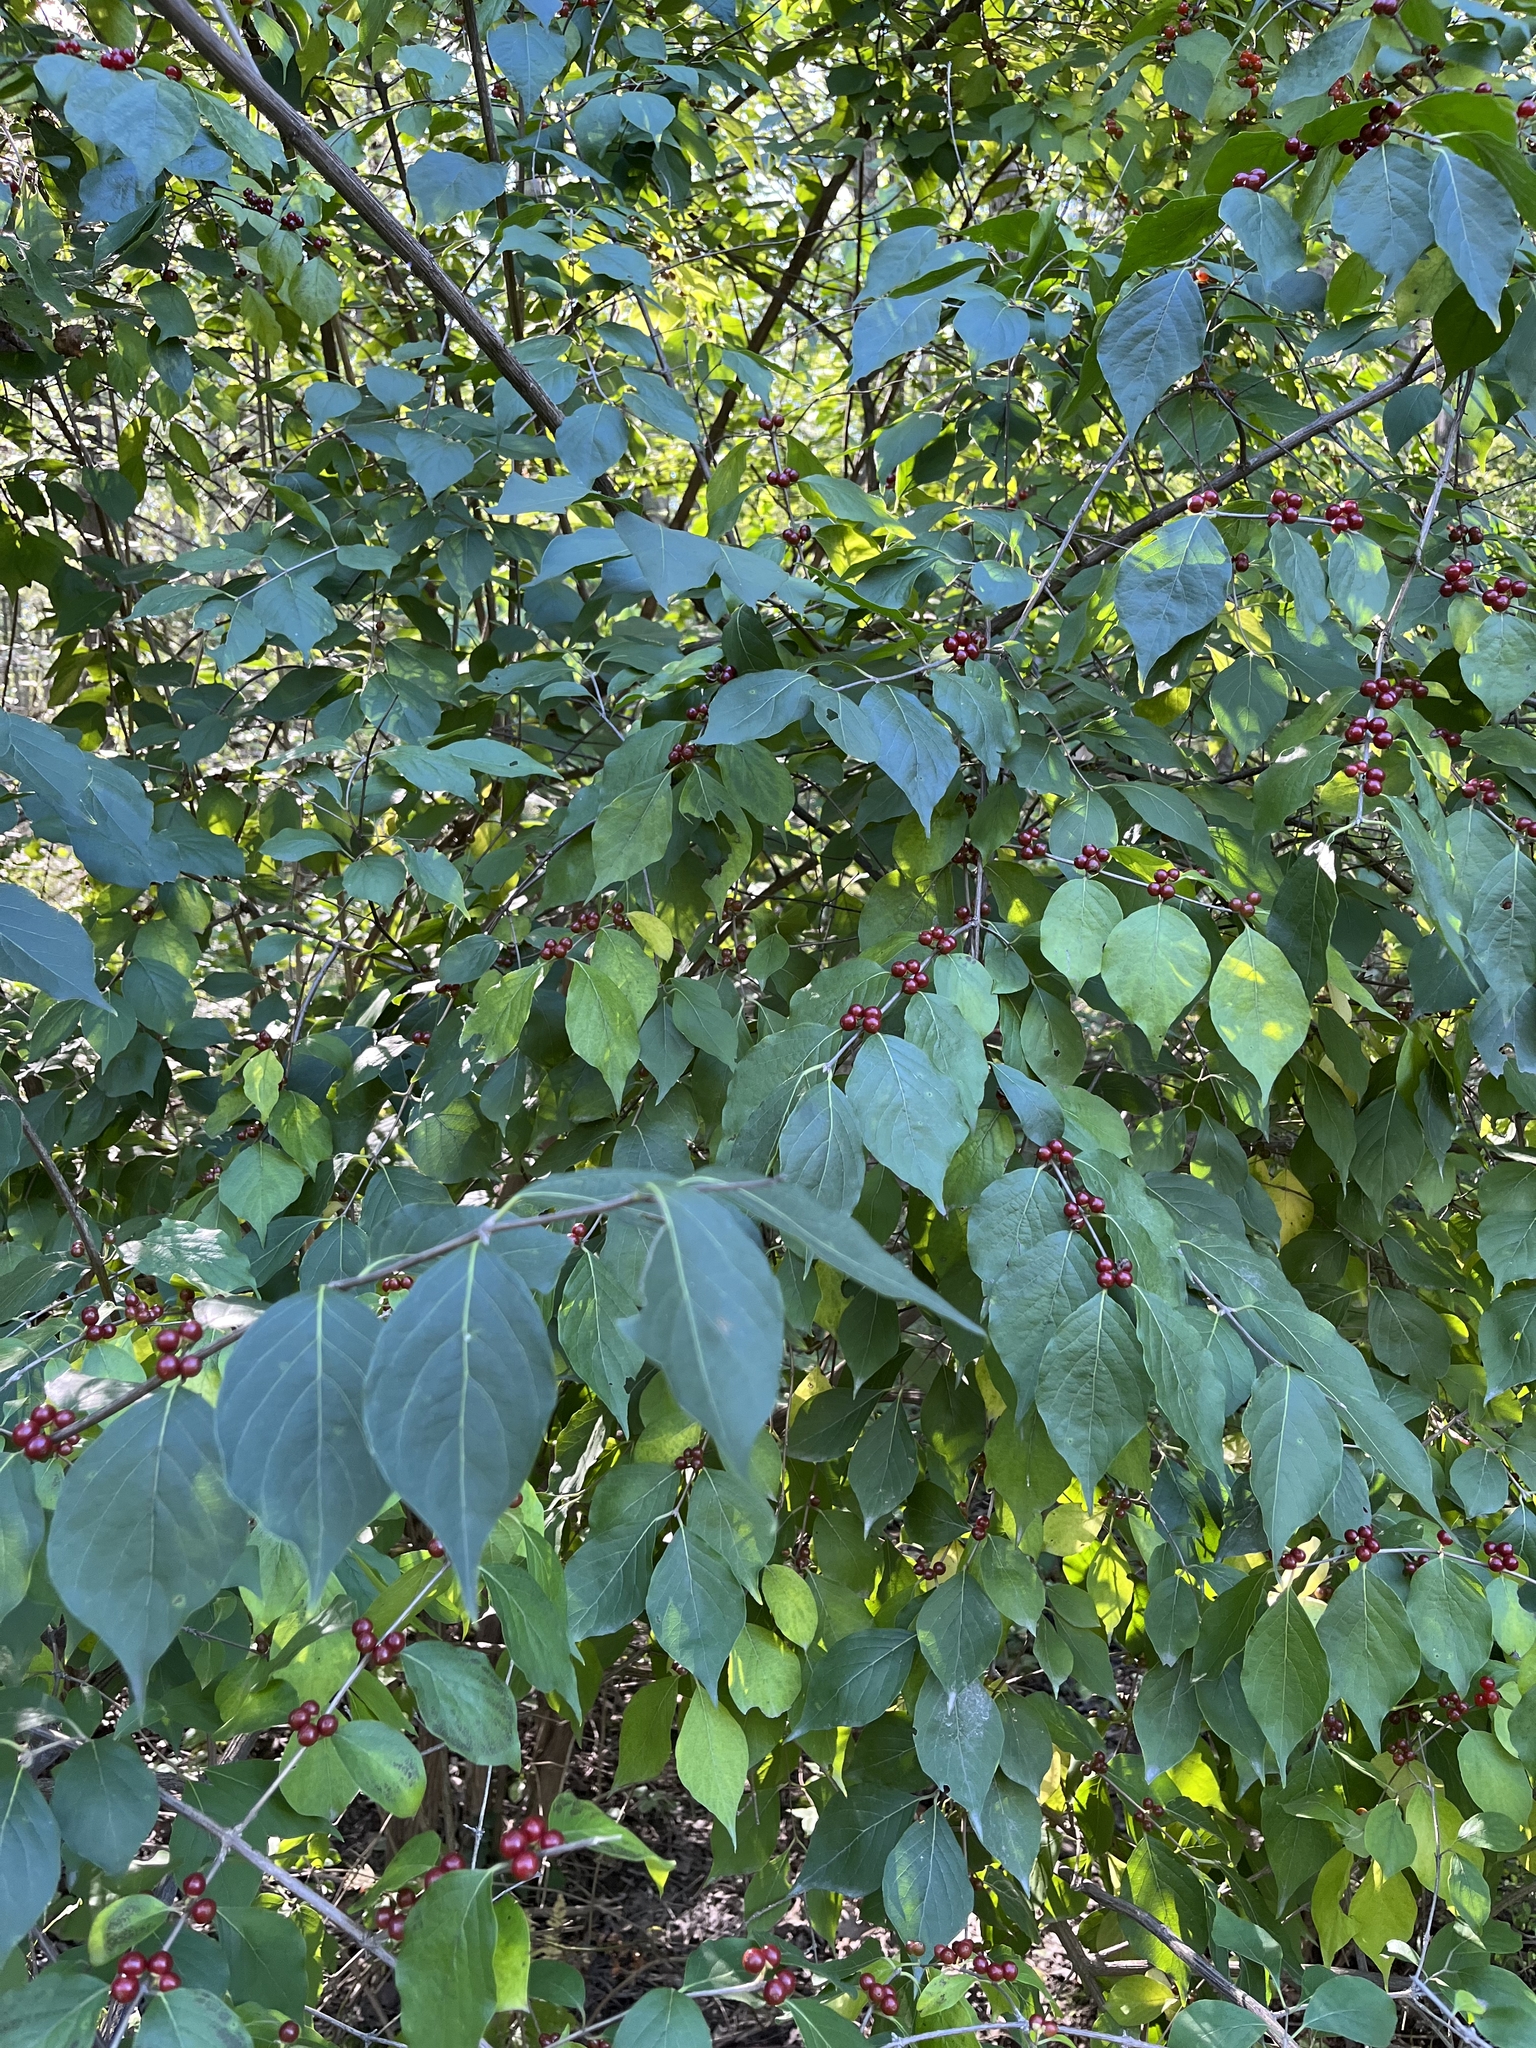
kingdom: Plantae
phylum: Tracheophyta
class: Magnoliopsida
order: Dipsacales
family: Caprifoliaceae
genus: Lonicera
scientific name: Lonicera maackii
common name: Amur honeysuckle
